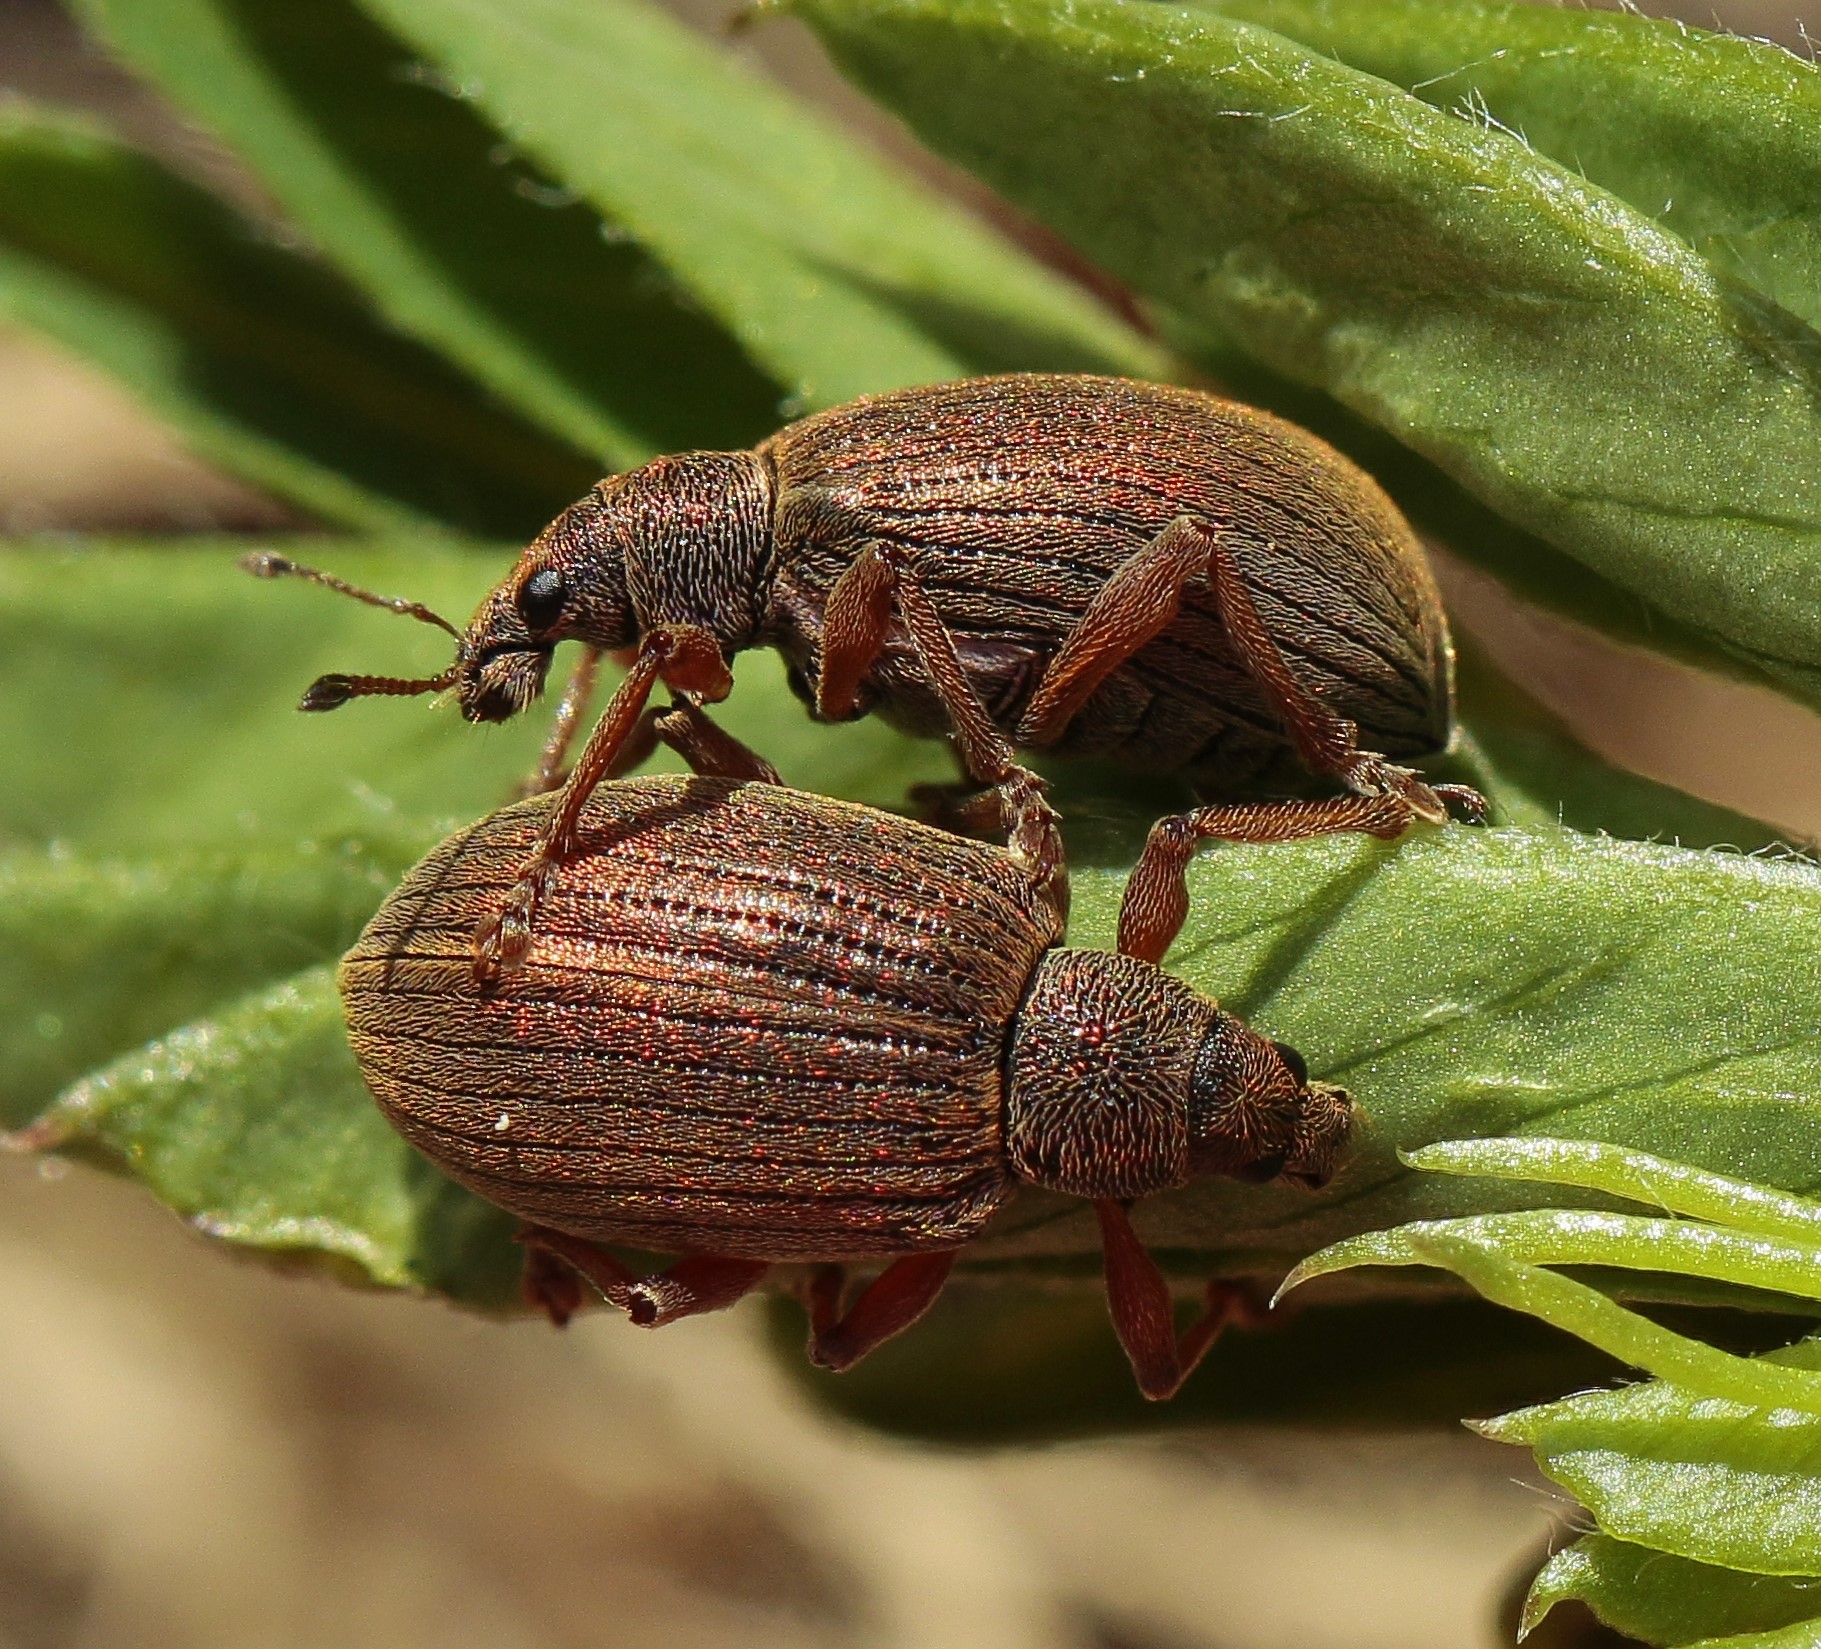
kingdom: Animalia
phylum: Arthropoda
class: Insecta
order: Coleoptera
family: Curculionidae
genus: Polydrusus
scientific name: Polydrusus mollis
